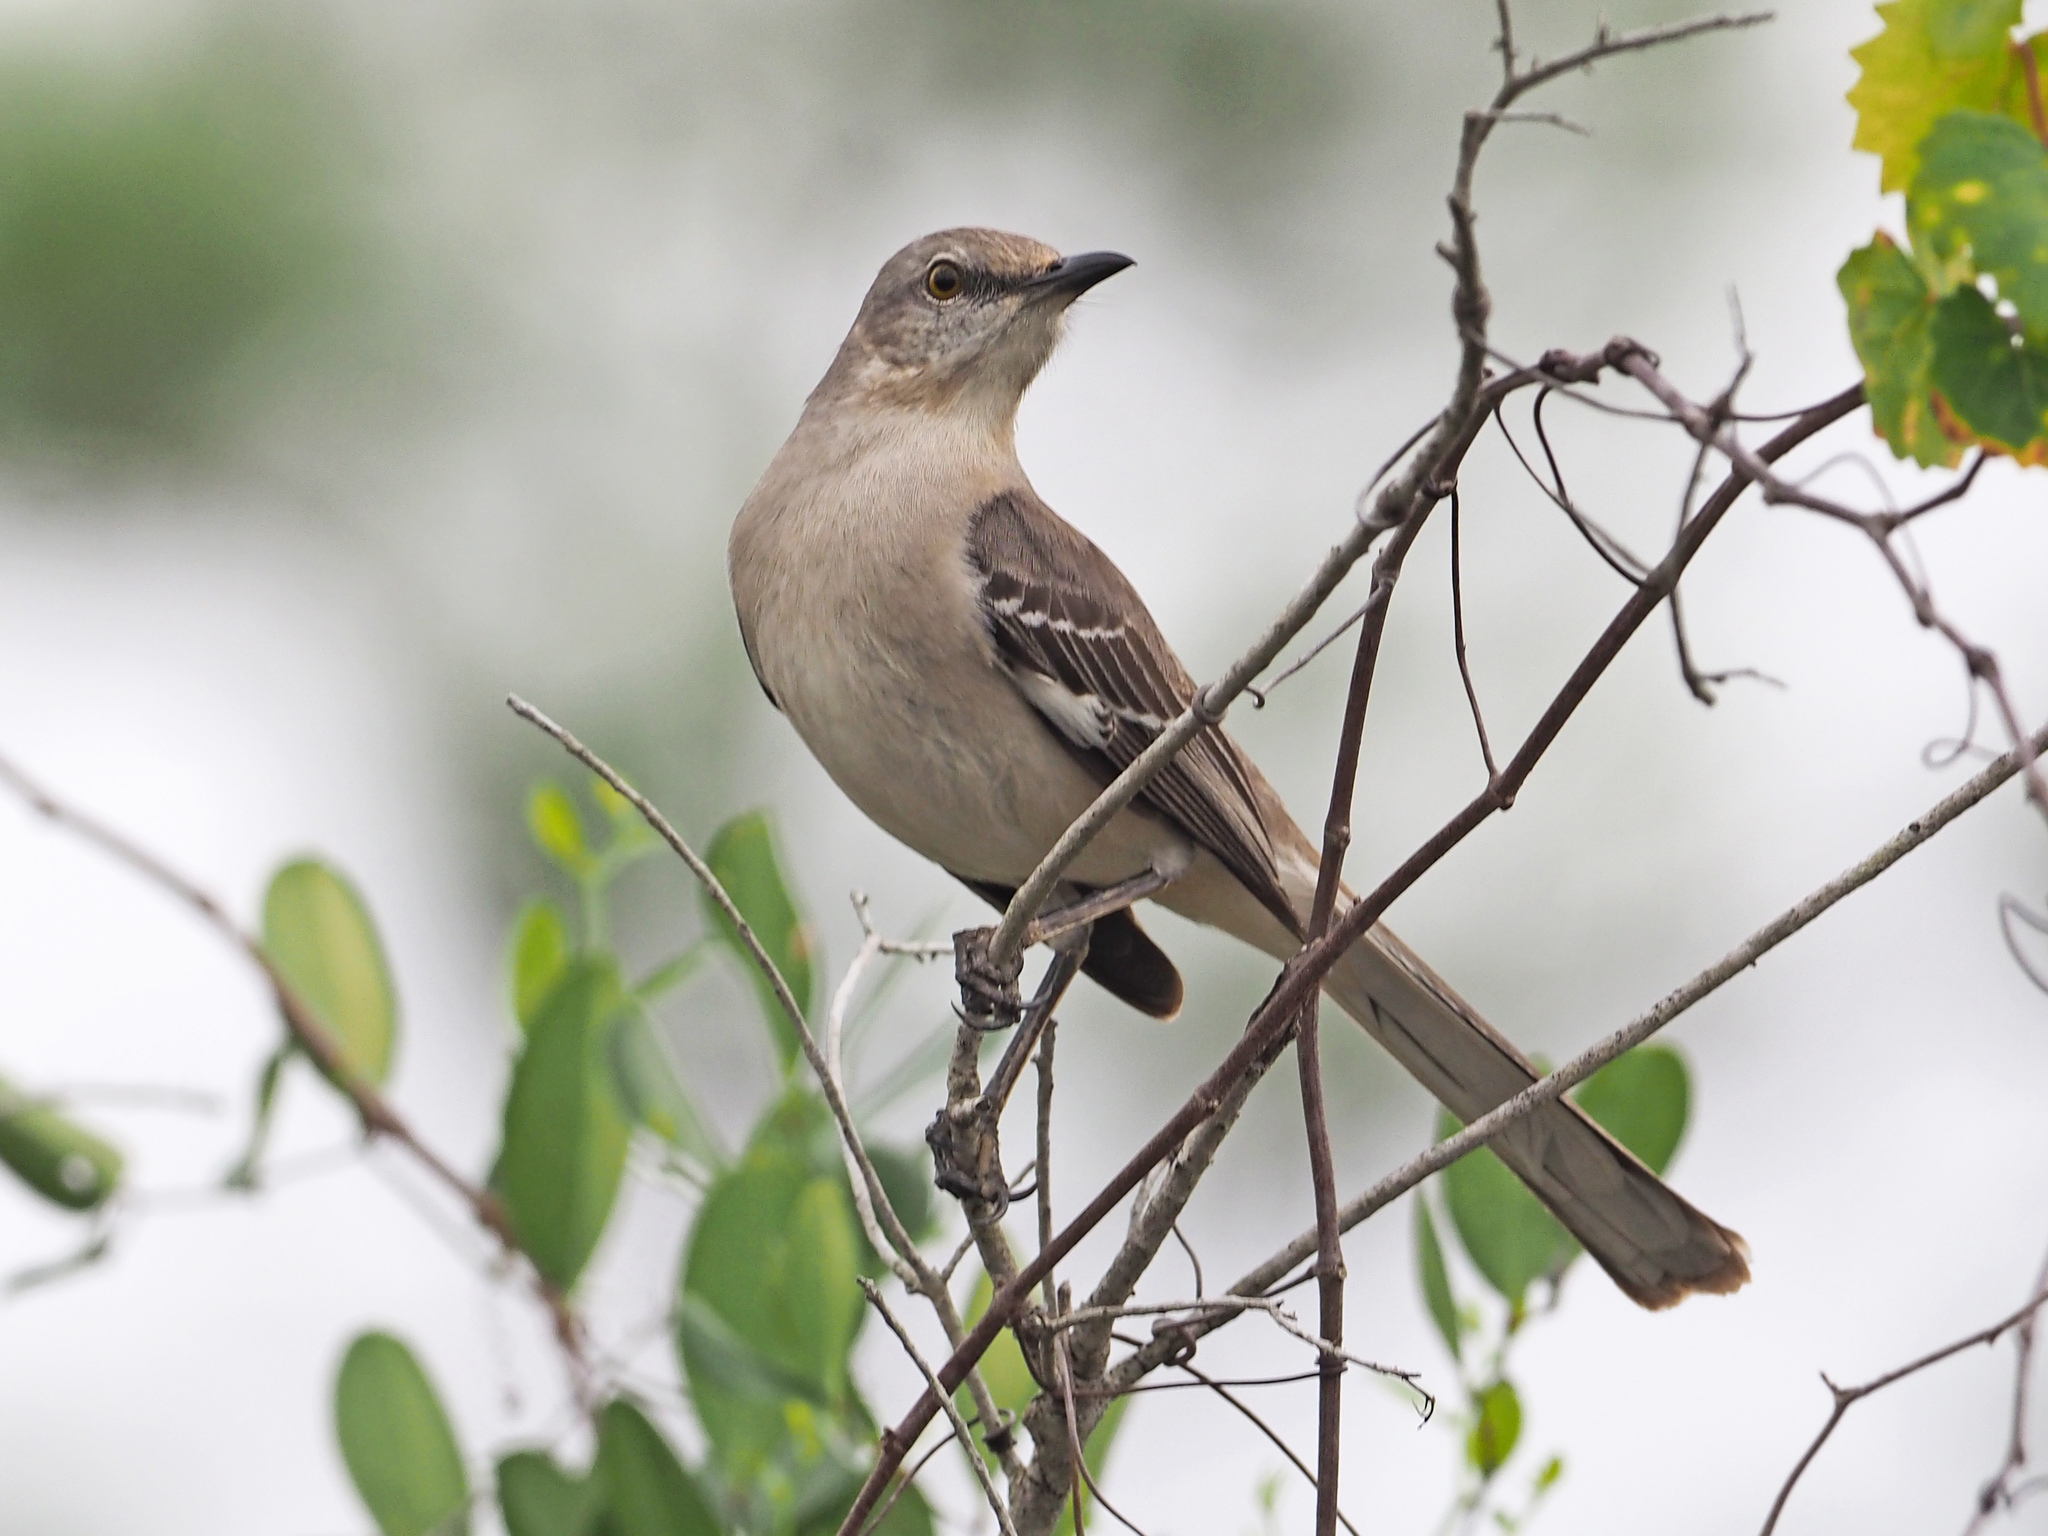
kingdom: Animalia
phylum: Chordata
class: Aves
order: Passeriformes
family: Mimidae
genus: Mimus
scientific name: Mimus polyglottos
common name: Northern mockingbird
